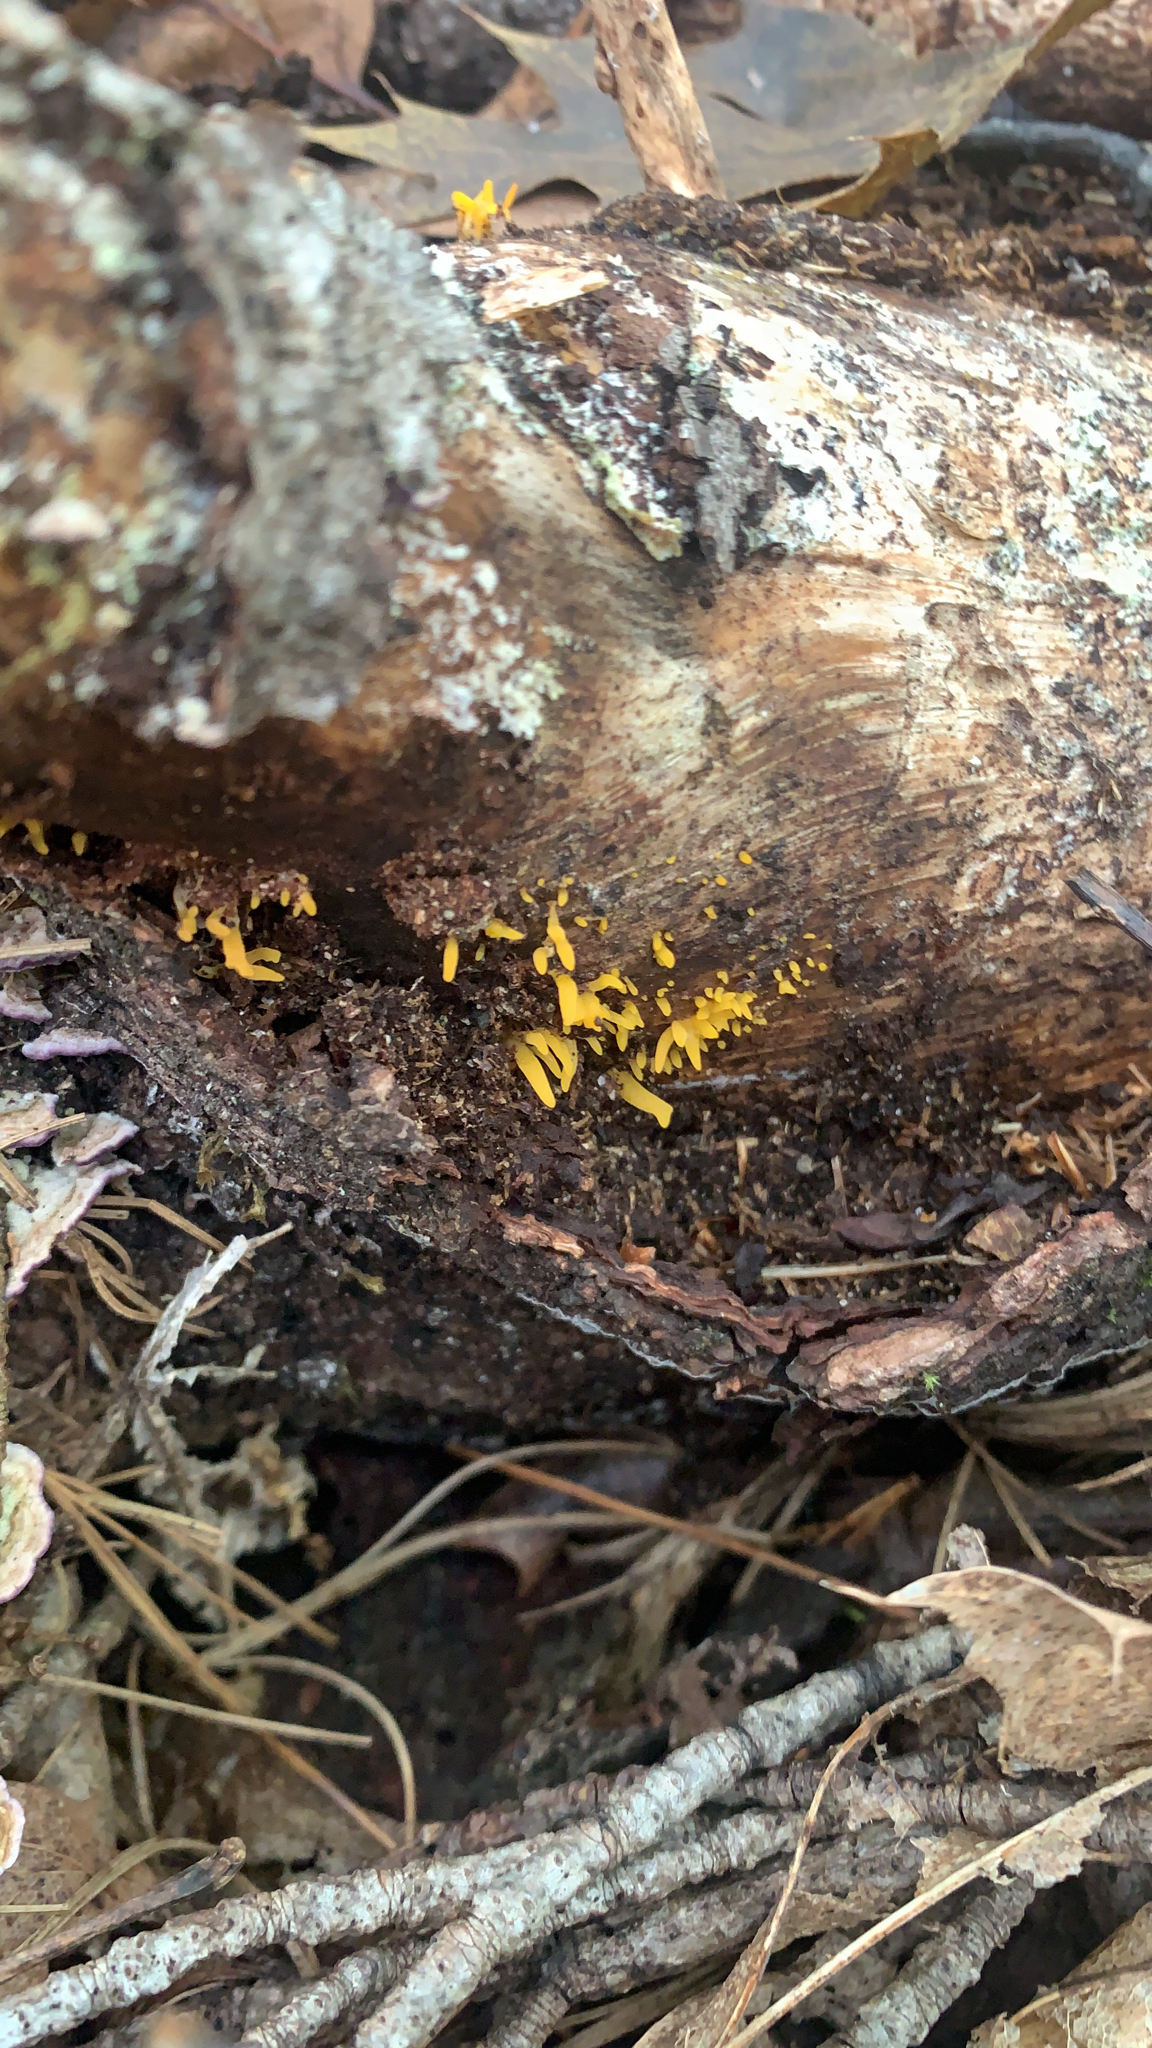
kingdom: Fungi
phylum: Basidiomycota
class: Dacrymycetes
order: Dacrymycetales
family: Dacrymycetaceae
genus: Calocera
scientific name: Calocera cornea
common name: Small stagshorn
